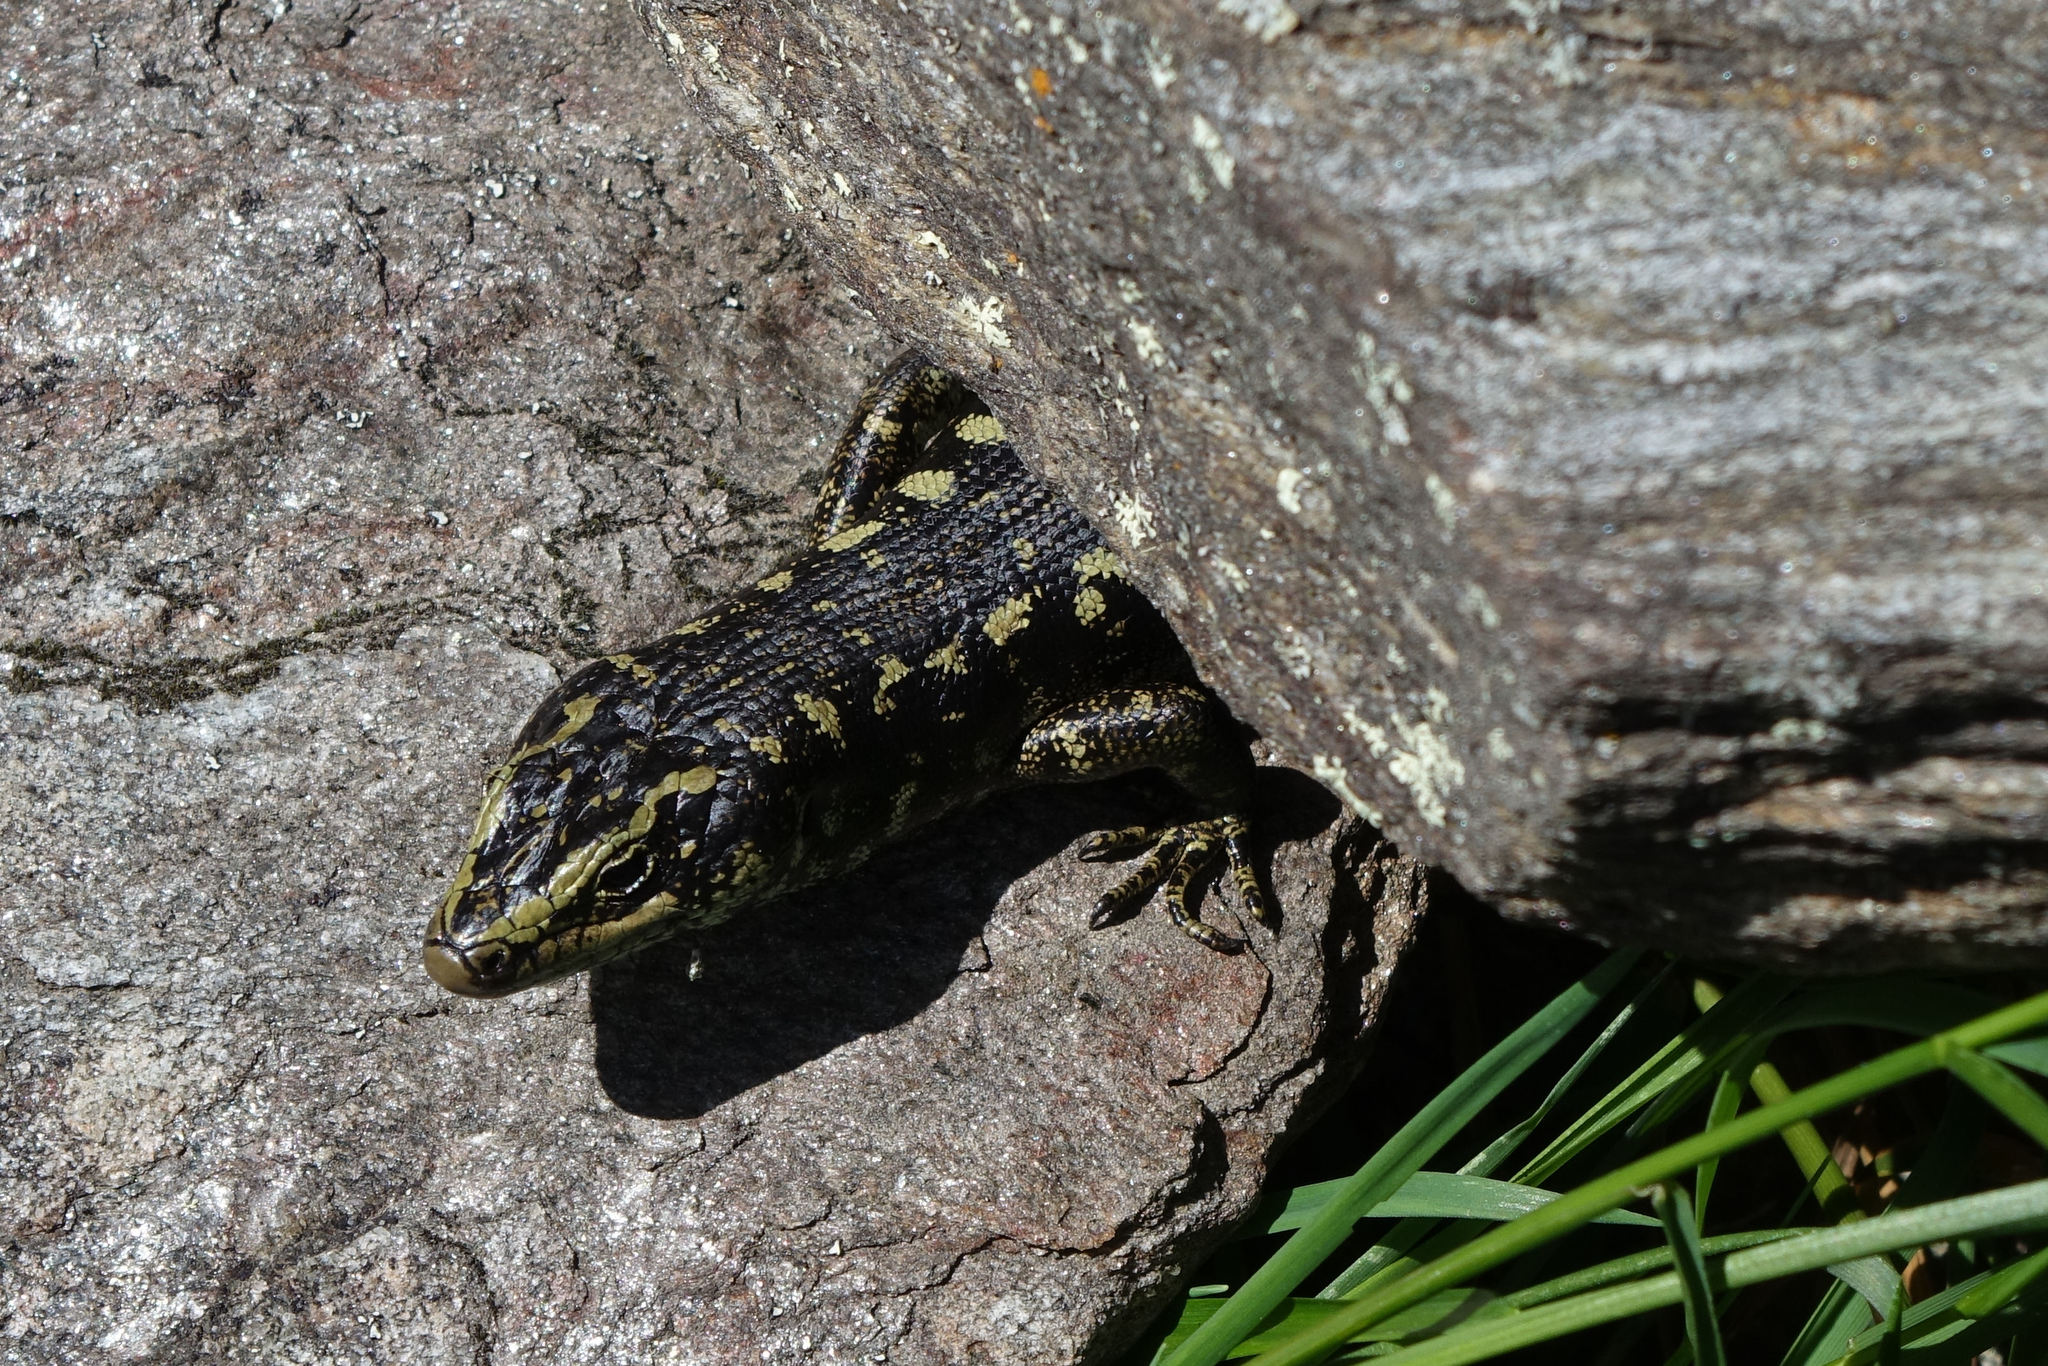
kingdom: Animalia
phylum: Chordata
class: Squamata
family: Scincidae
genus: Oligosoma
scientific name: Oligosoma otagense
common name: Otago skink
